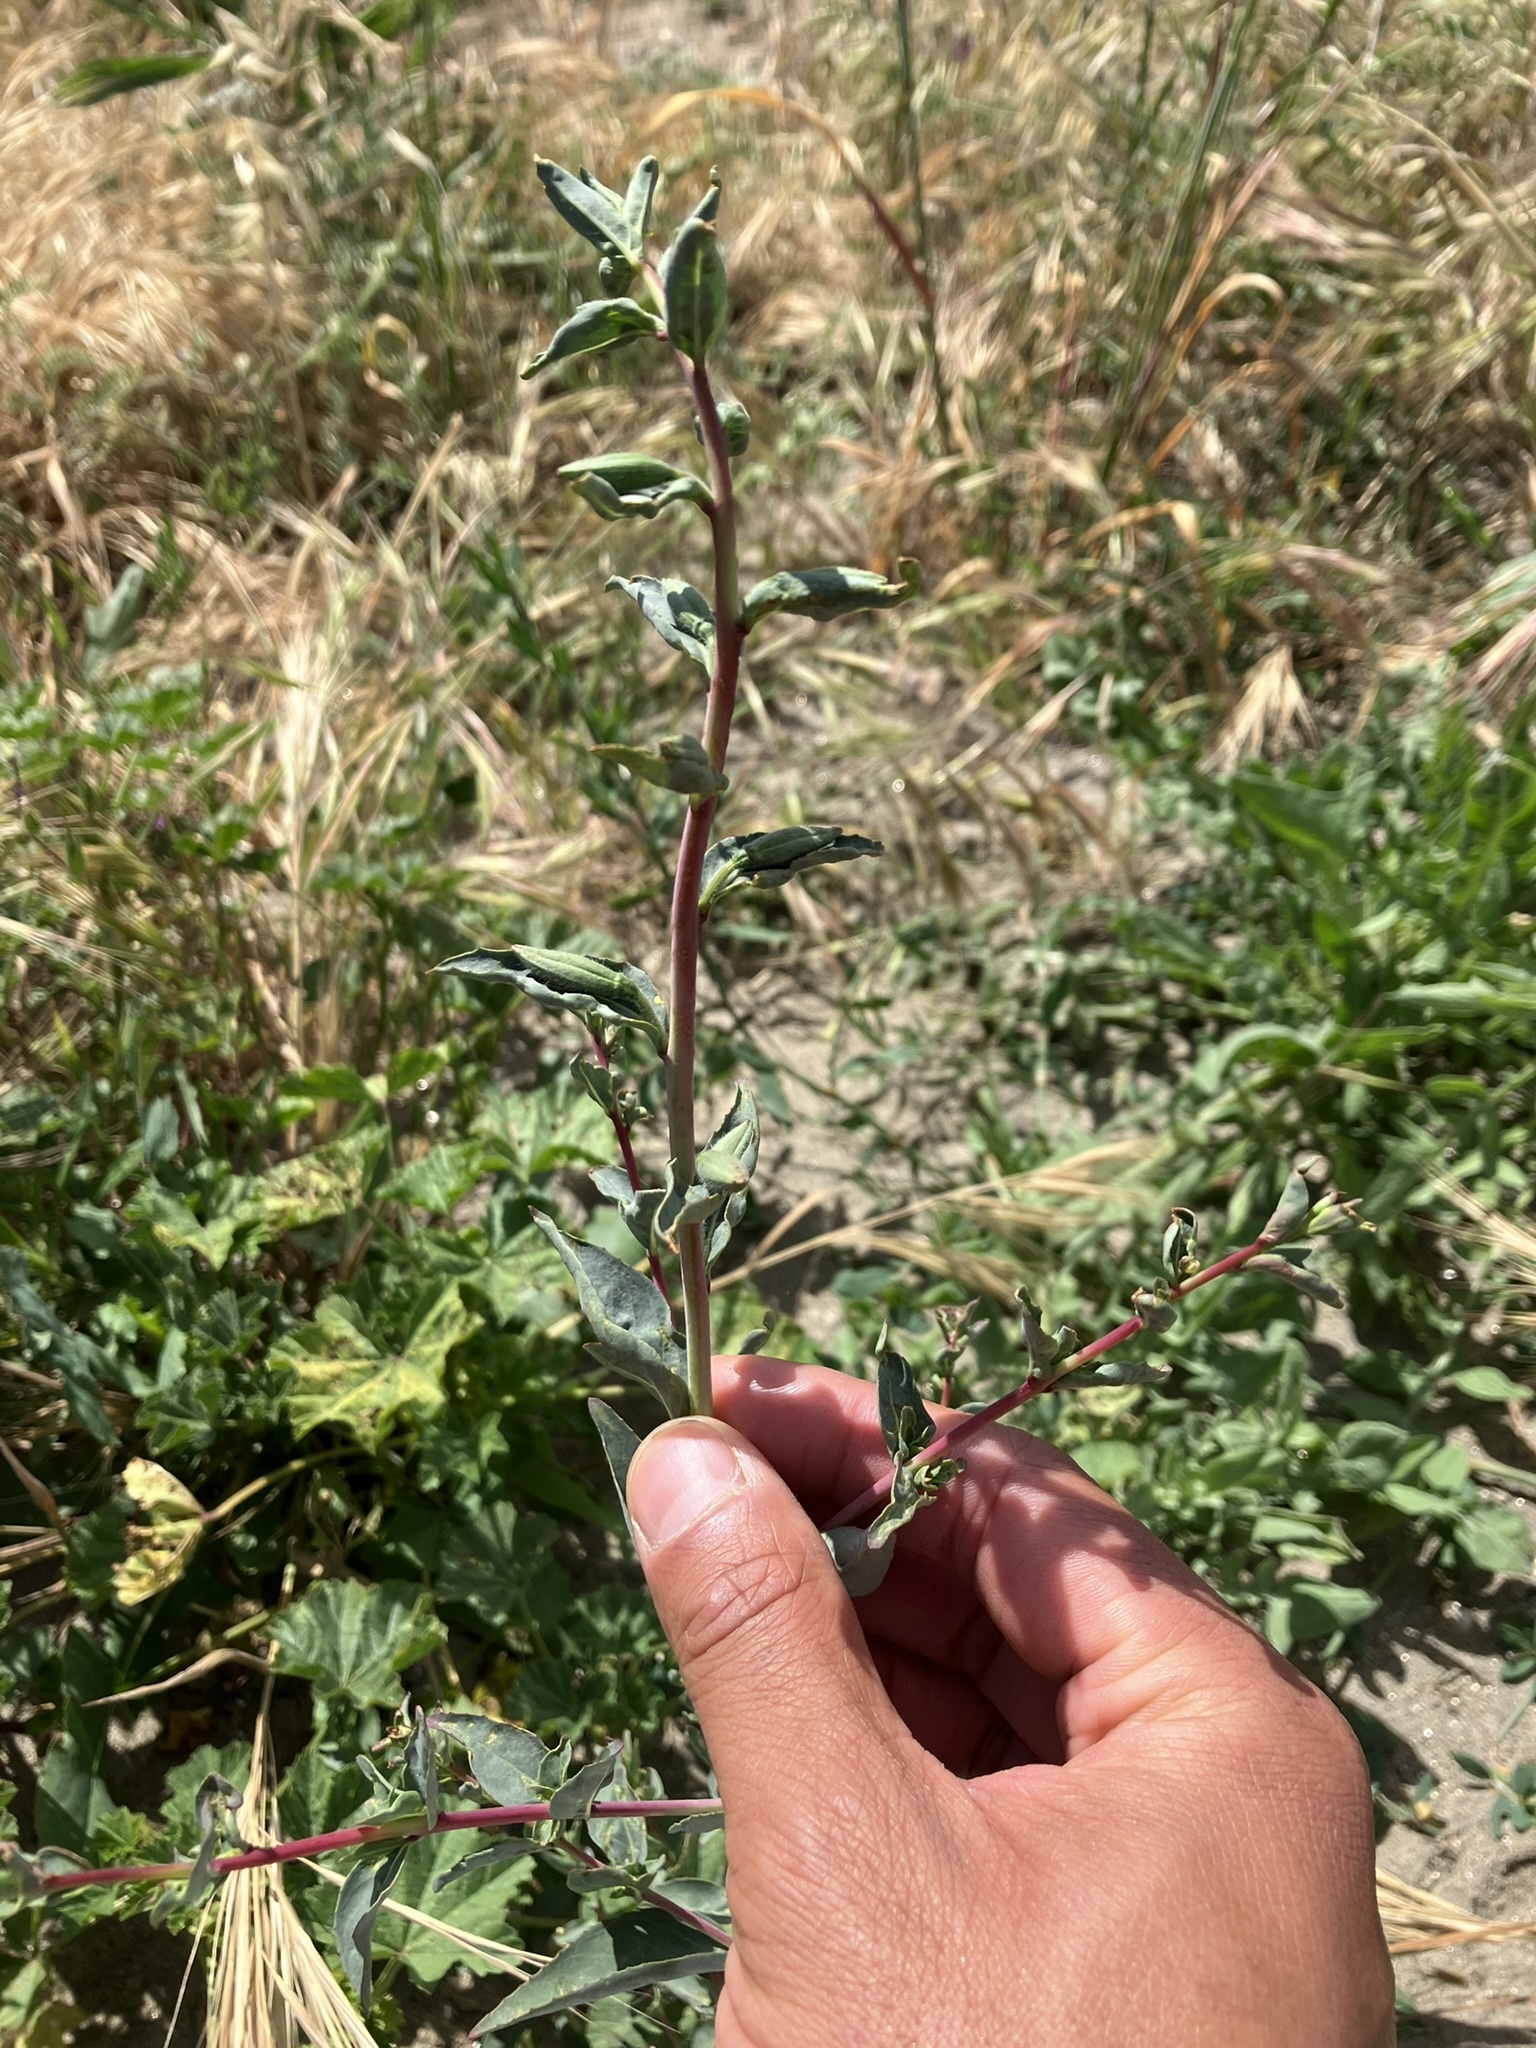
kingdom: Plantae
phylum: Tracheophyta
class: Magnoliopsida
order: Myrtales
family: Onagraceae
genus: Clarkia
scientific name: Clarkia unguiculata
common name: Clarkia
